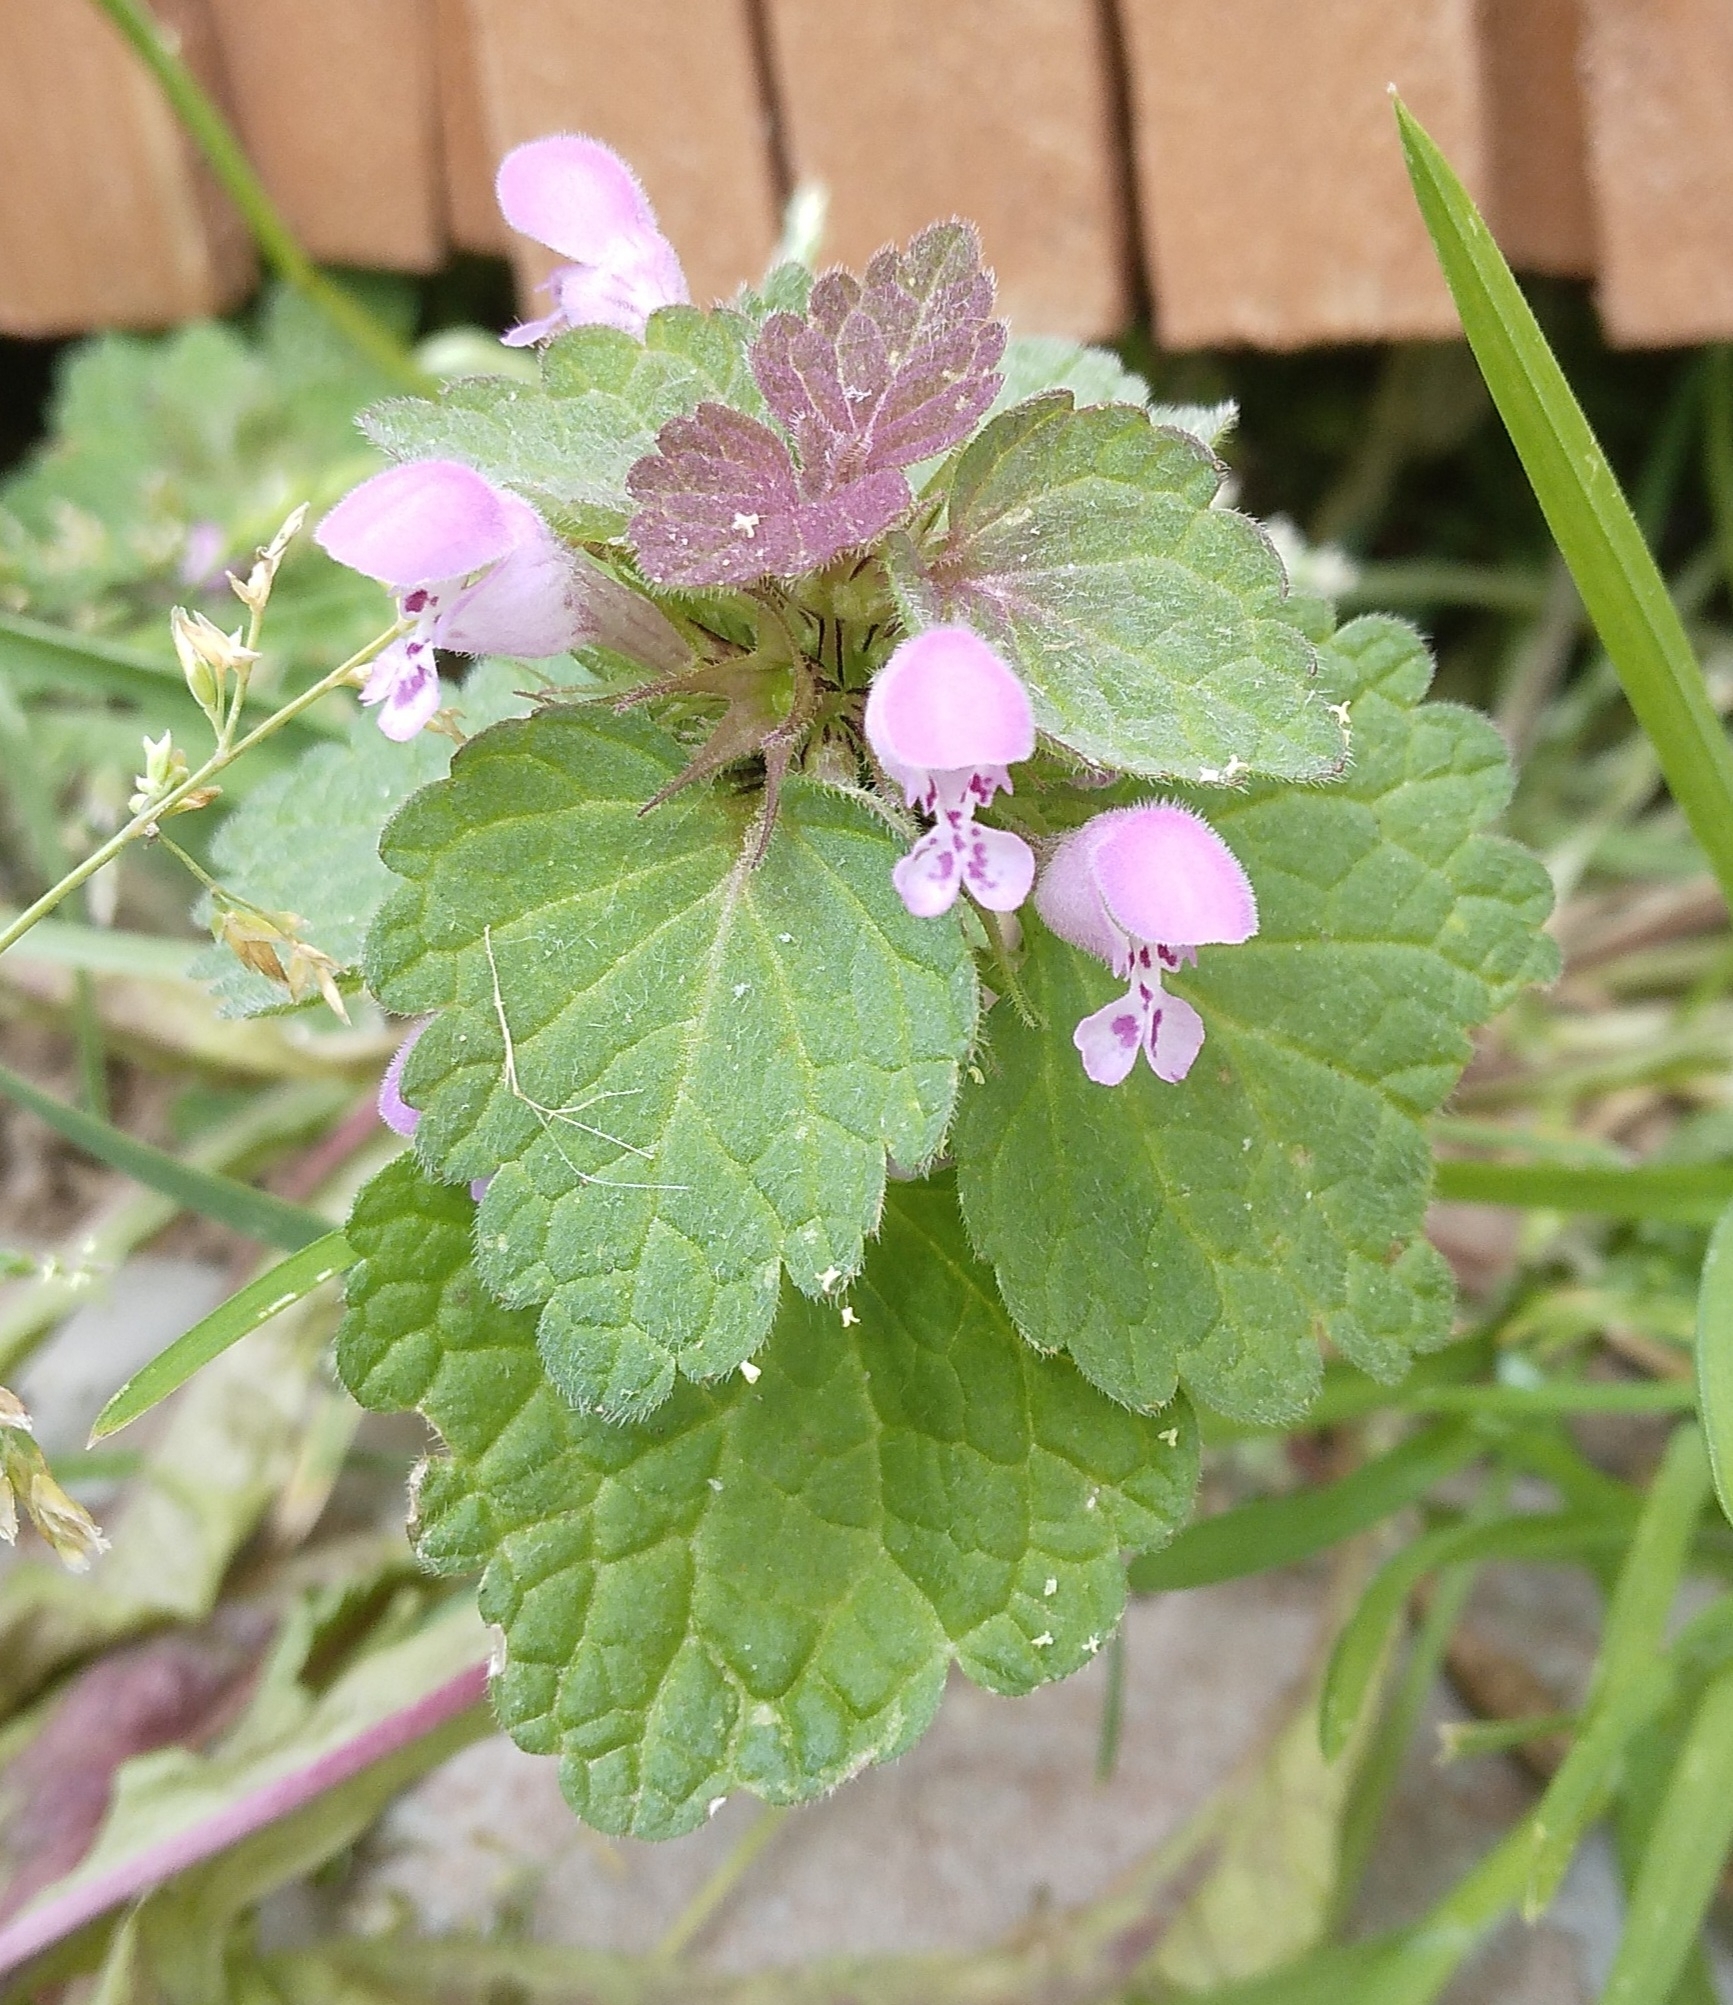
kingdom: Plantae
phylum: Tracheophyta
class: Magnoliopsida
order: Lamiales
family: Lamiaceae
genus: Lamium
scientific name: Lamium purpureum
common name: Red dead-nettle
